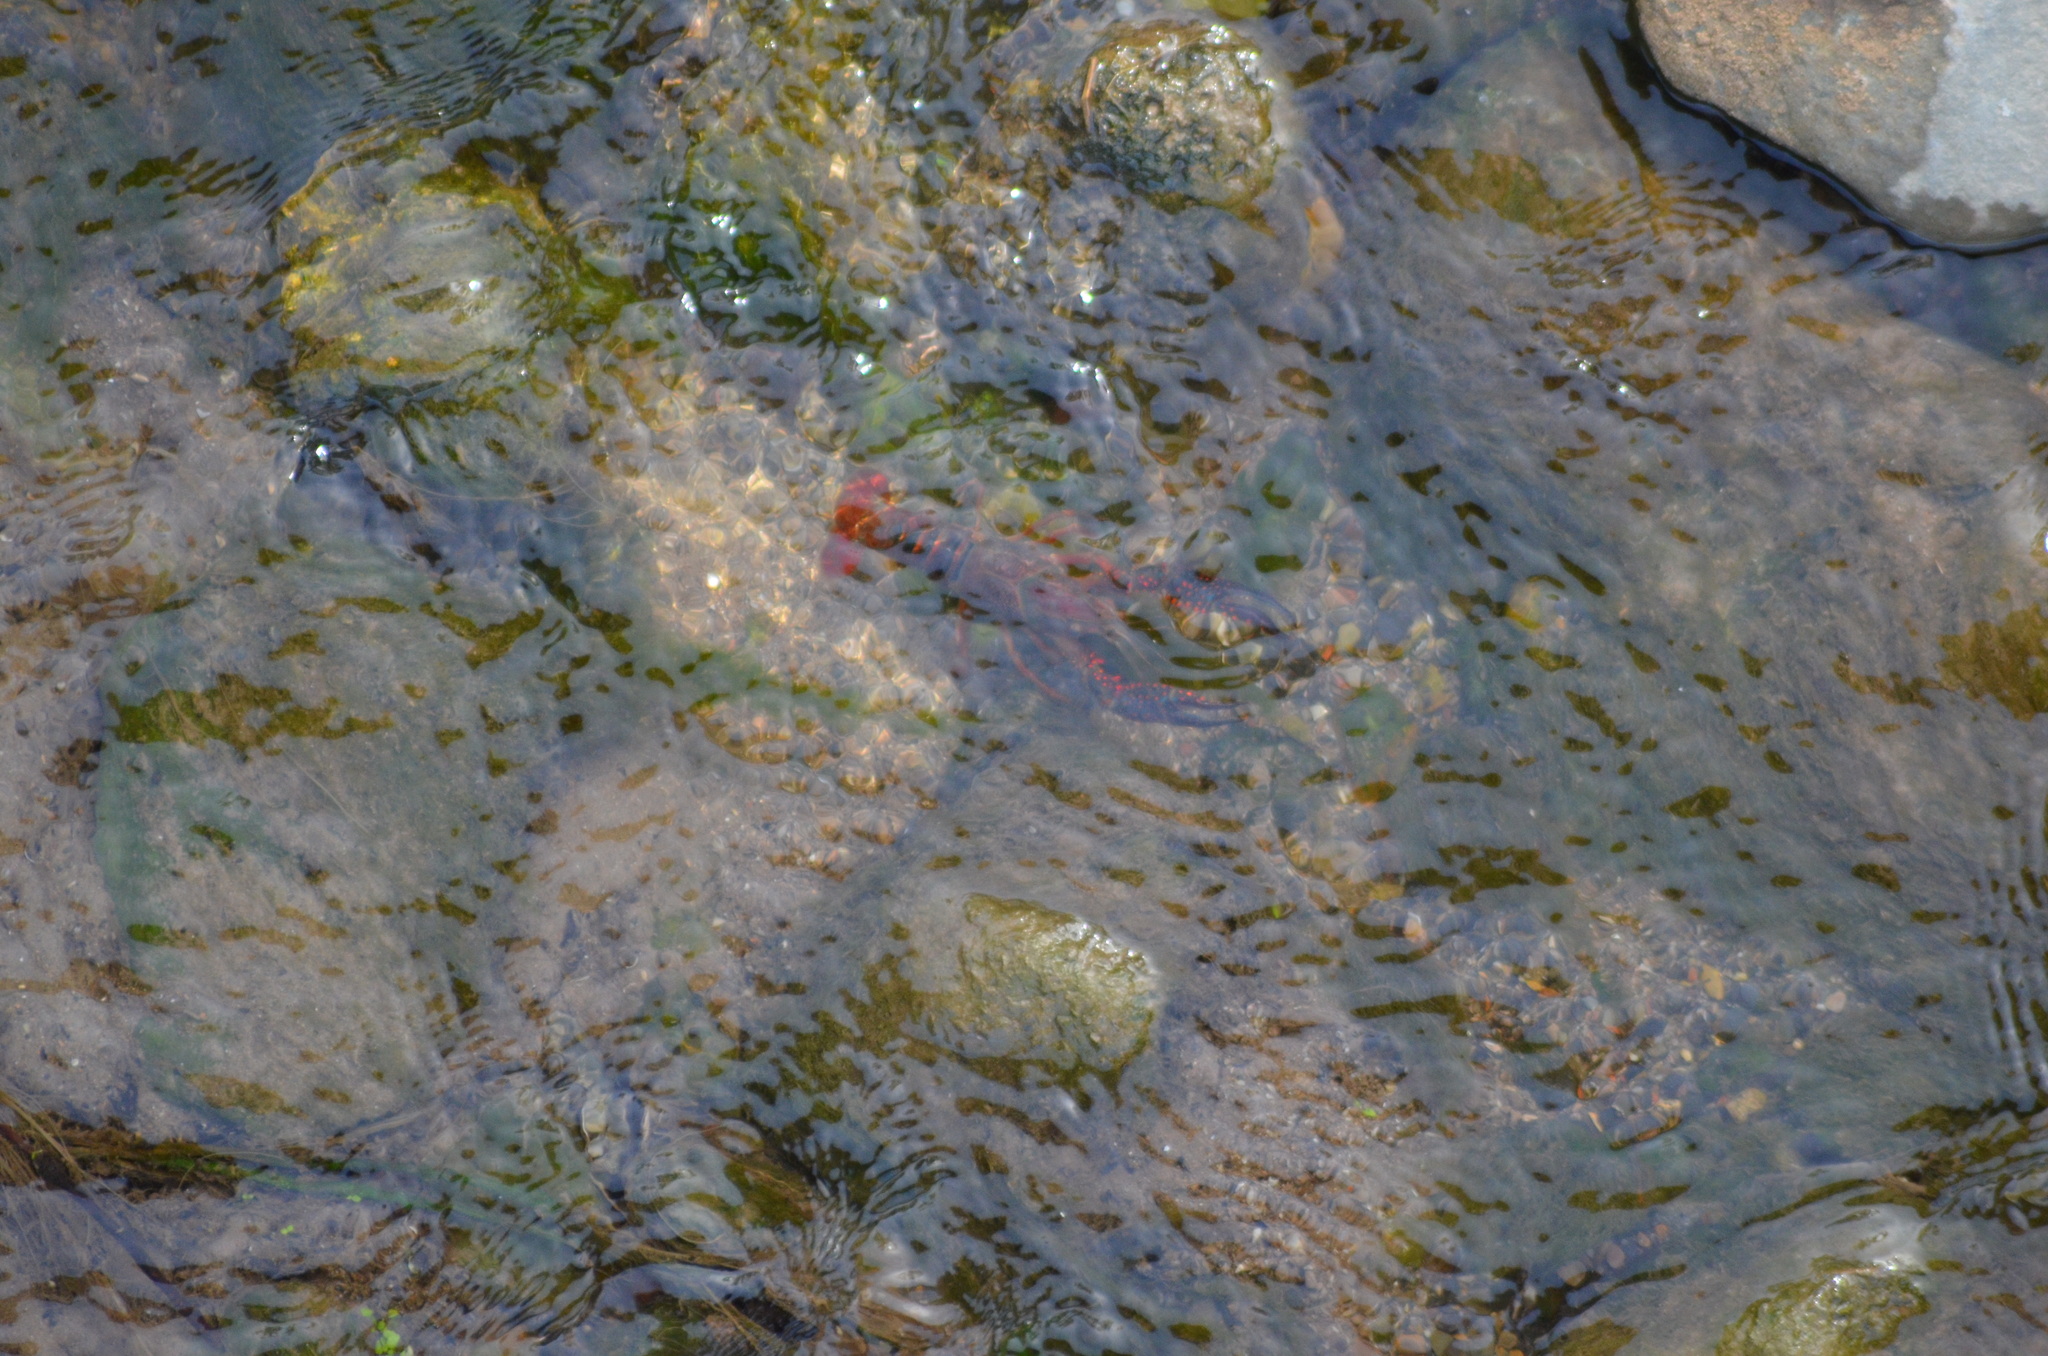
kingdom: Animalia
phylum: Arthropoda
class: Malacostraca
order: Decapoda
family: Cambaridae
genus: Procambarus
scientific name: Procambarus clarkii
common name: Red swamp crayfish
